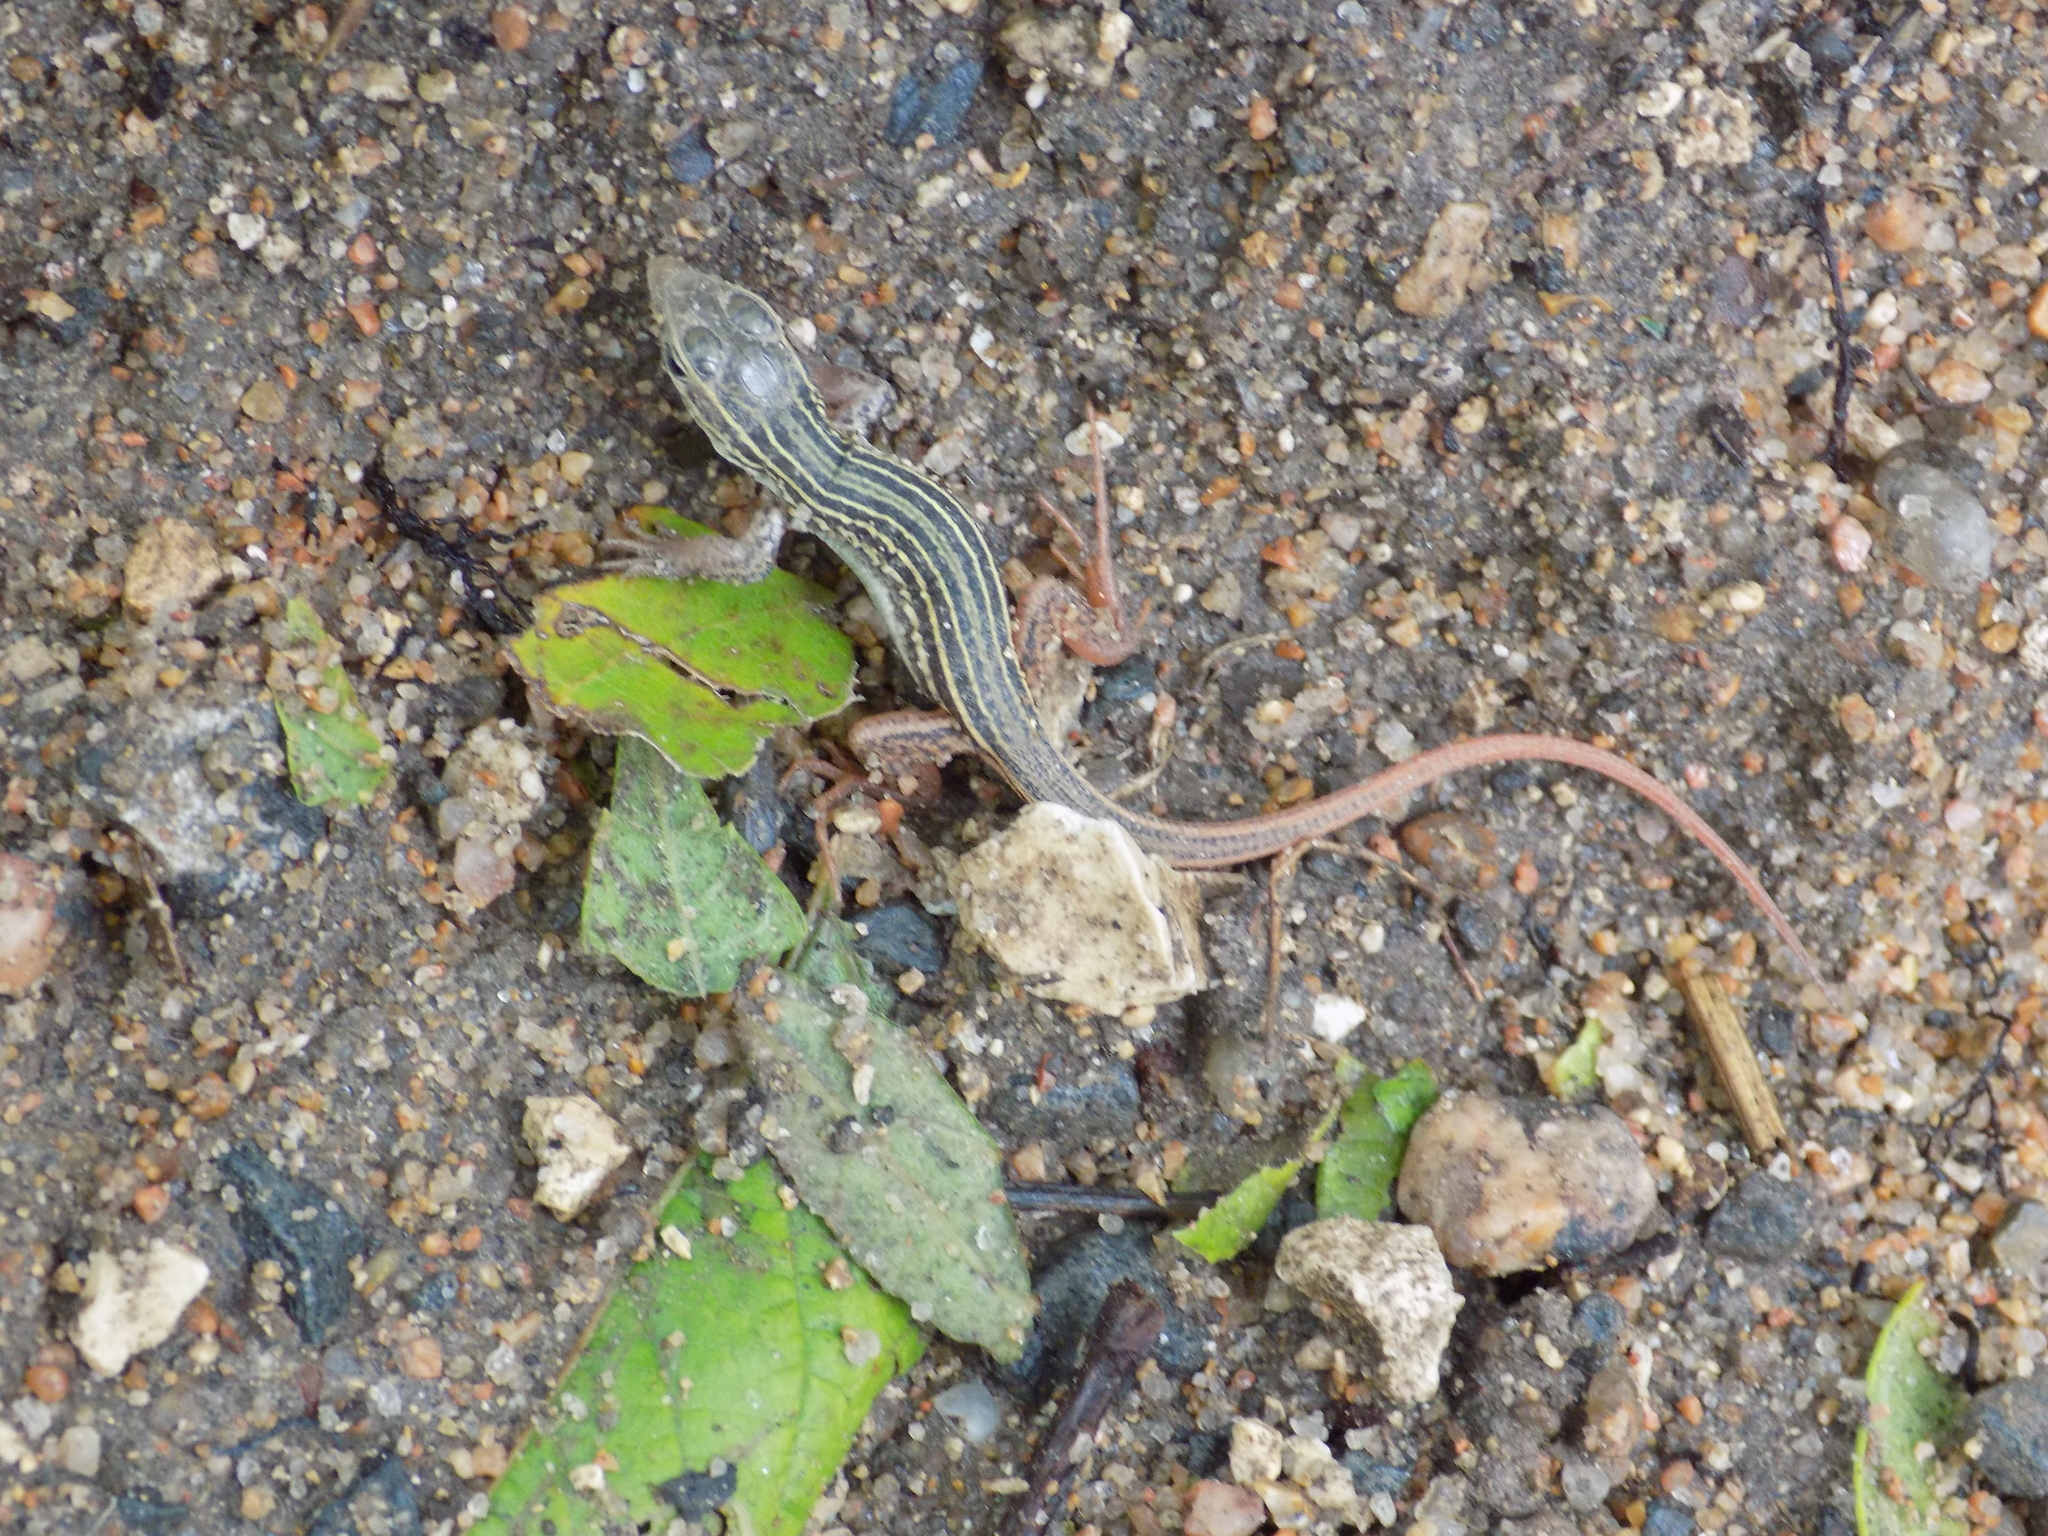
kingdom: Animalia
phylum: Chordata
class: Squamata
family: Teiidae
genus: Aspidoscelis
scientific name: Aspidoscelis gularis
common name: Eastern spotted whiptail
